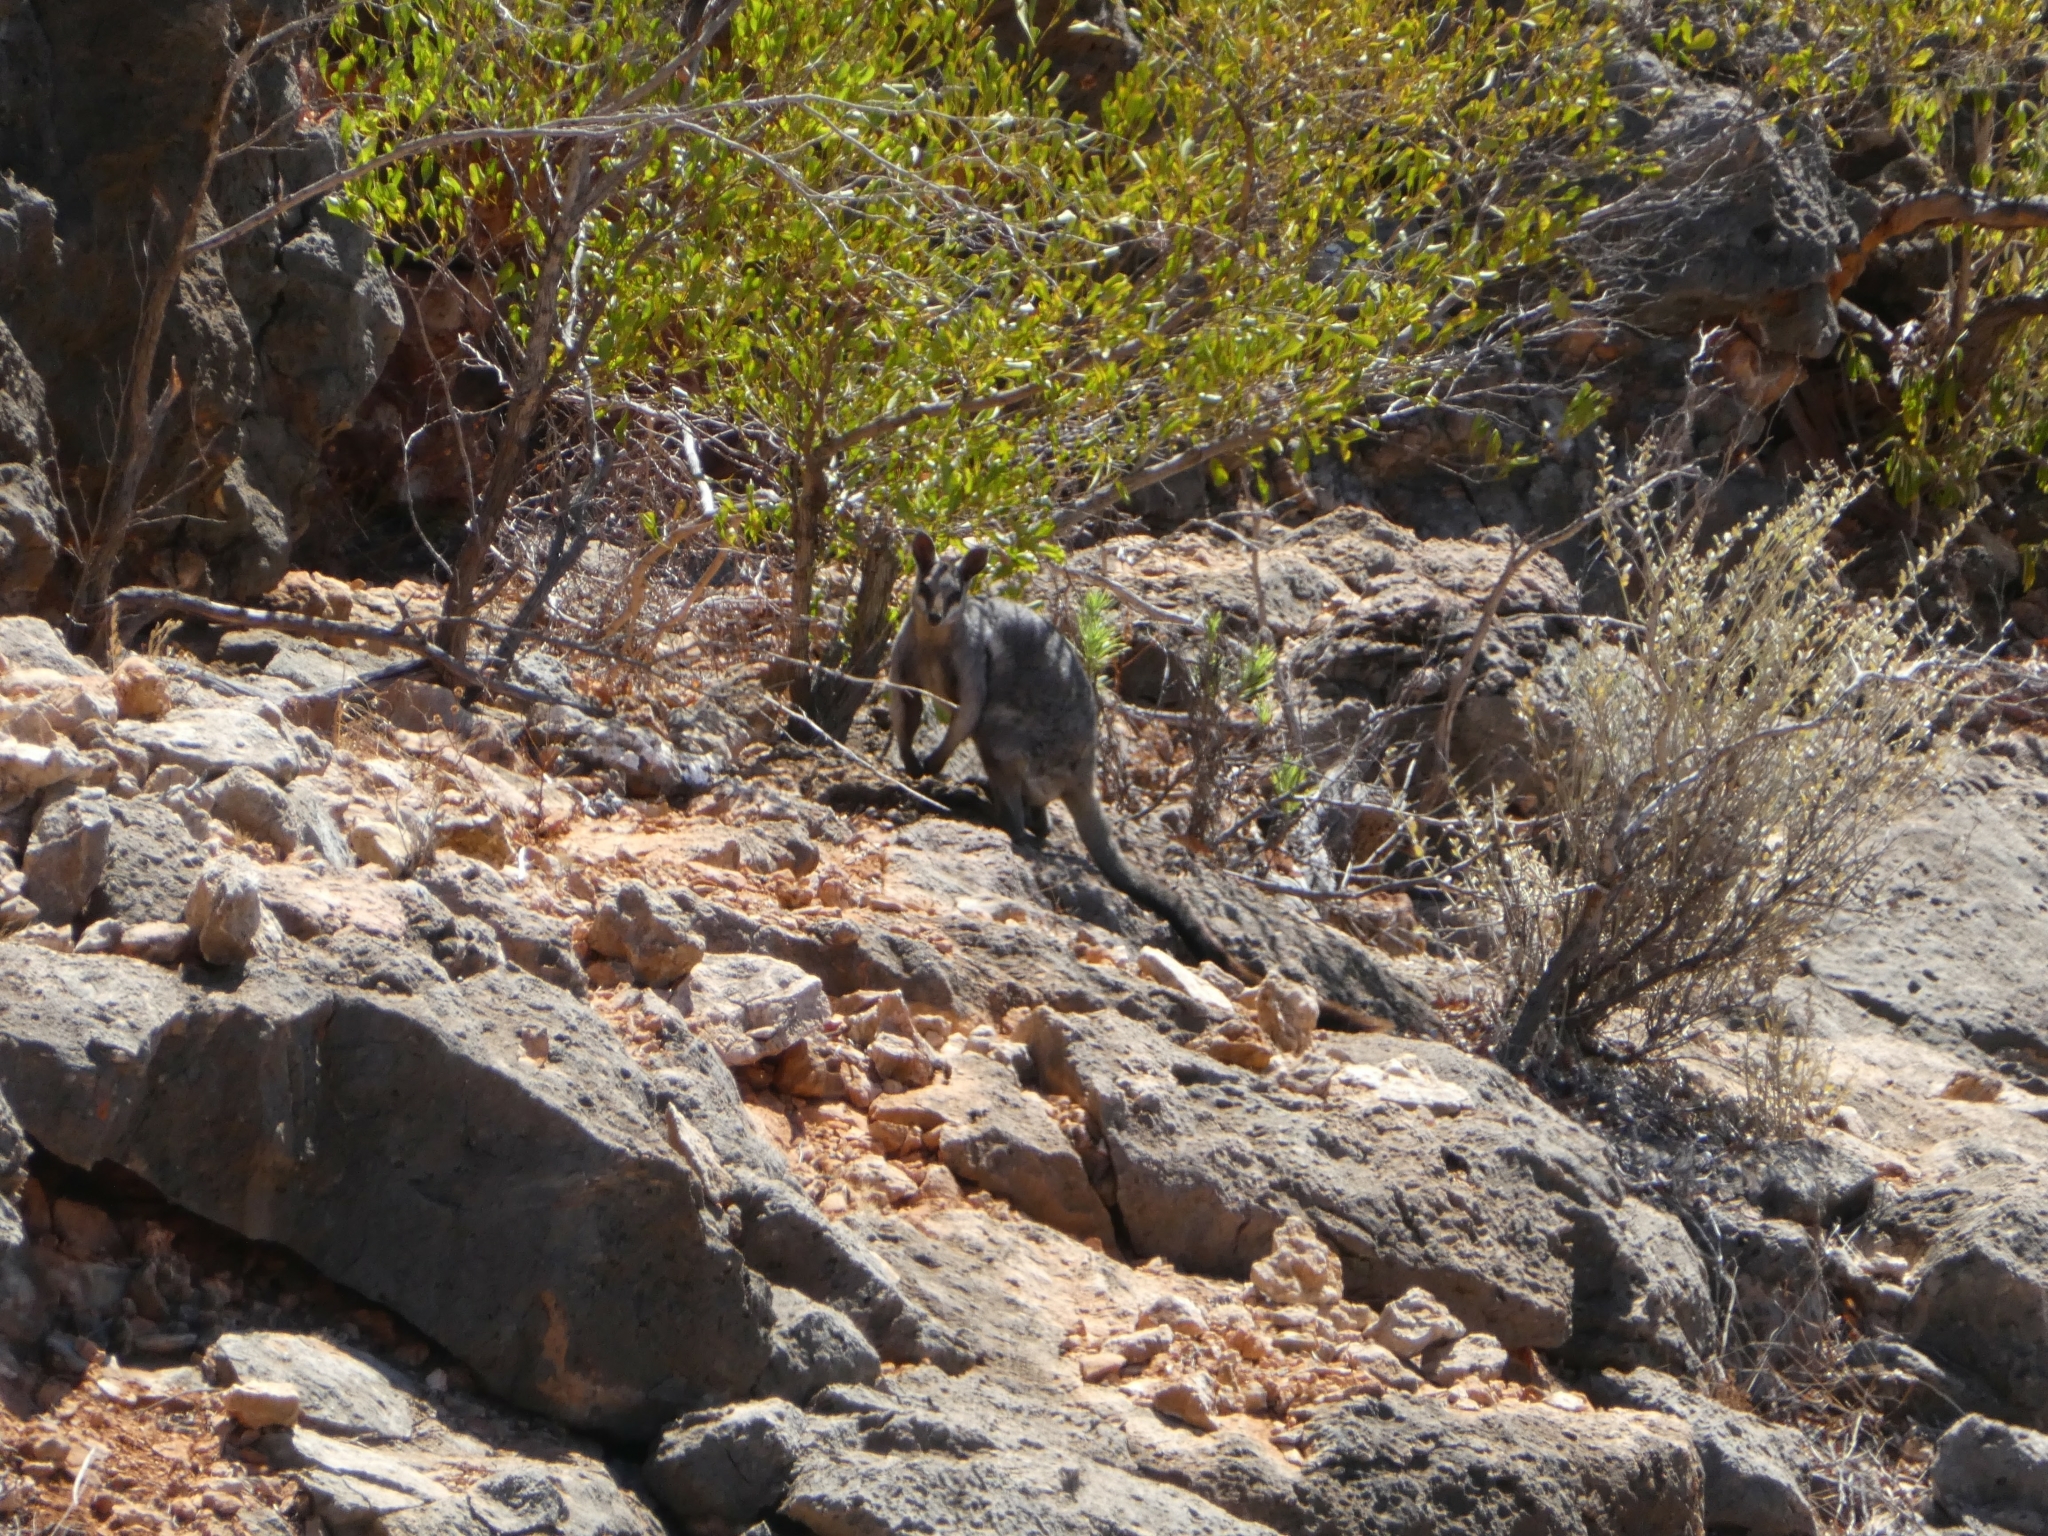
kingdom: Animalia
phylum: Chordata
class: Mammalia
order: Diprotodontia
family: Macropodidae
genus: Petrogale
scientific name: Petrogale lateralis
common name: Black-flanked rock-wallaby
